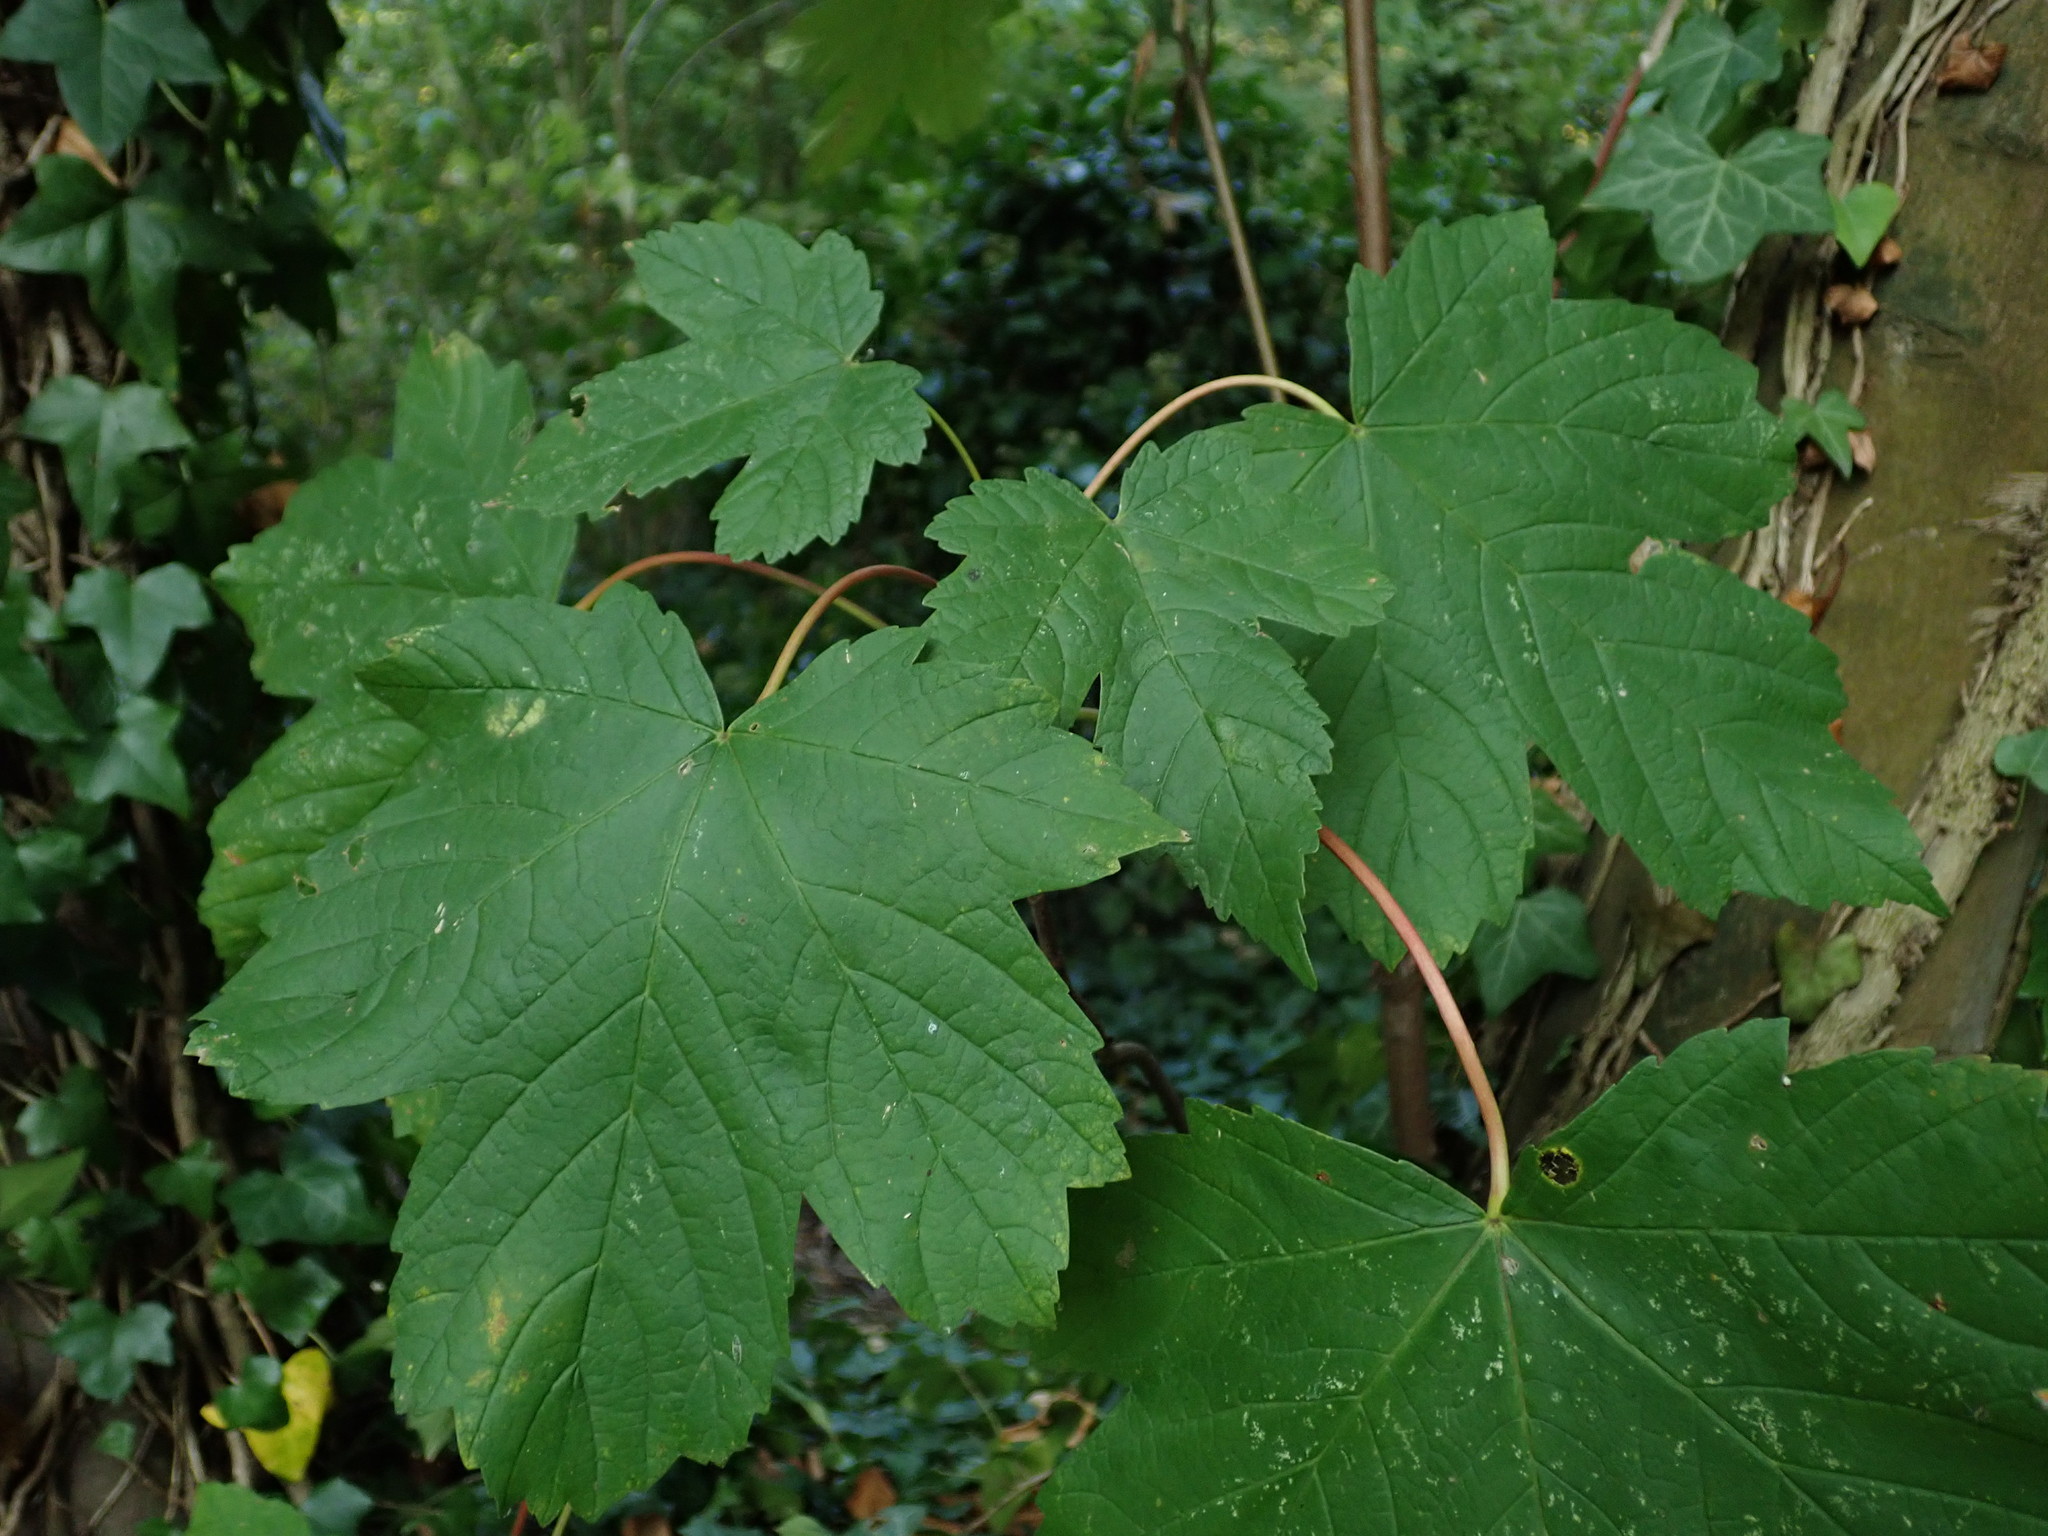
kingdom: Plantae
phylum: Tracheophyta
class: Magnoliopsida
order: Sapindales
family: Sapindaceae
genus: Acer
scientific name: Acer pseudoplatanus
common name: Sycamore
